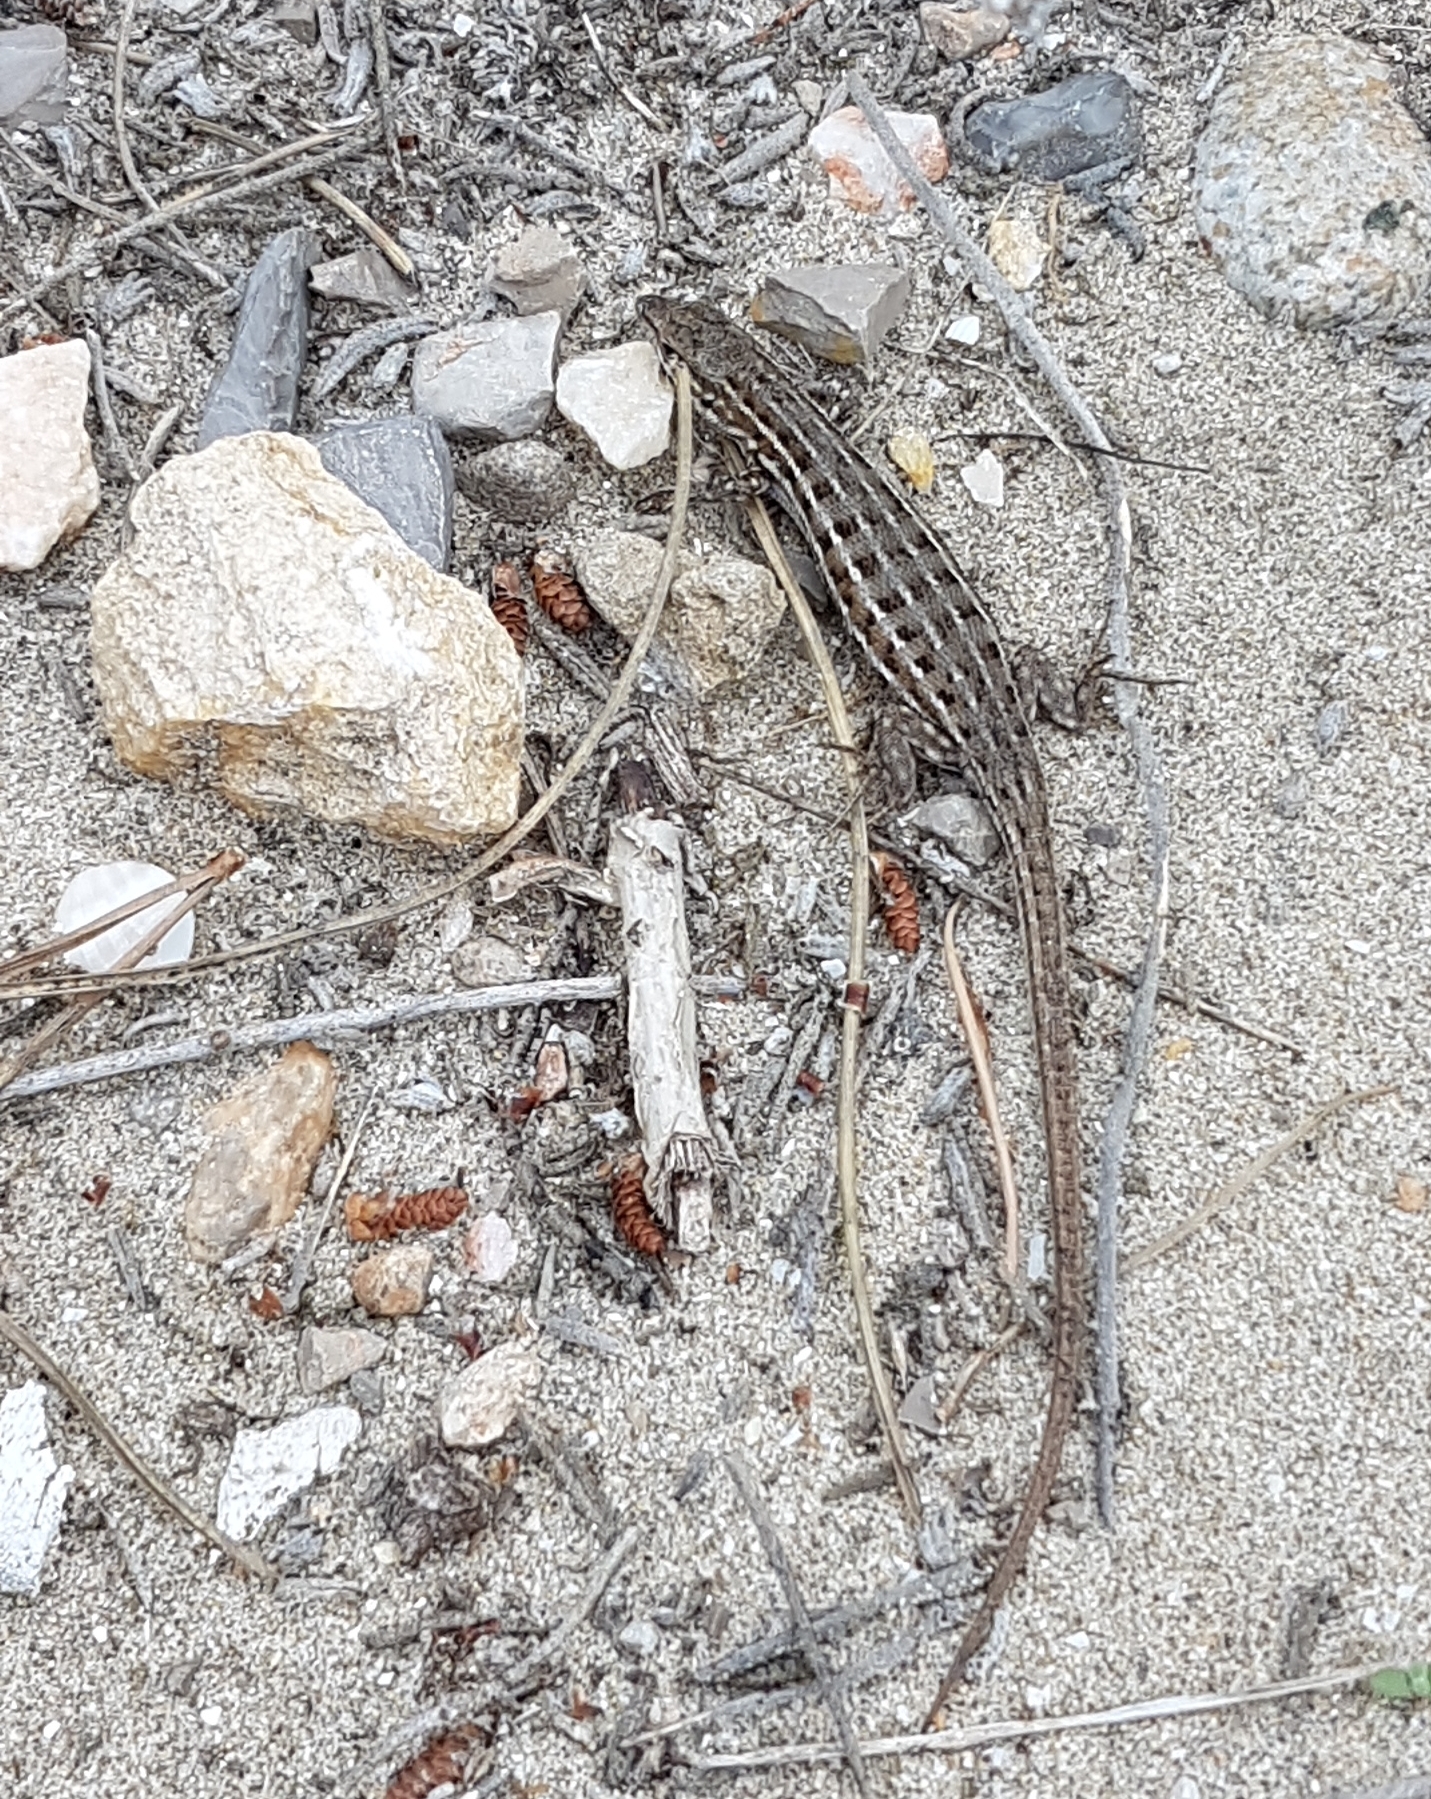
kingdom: Animalia
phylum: Chordata
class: Squamata
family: Lacertidae
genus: Psammodromus
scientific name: Psammodromus edwarsianus
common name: East iberian psammodromus
